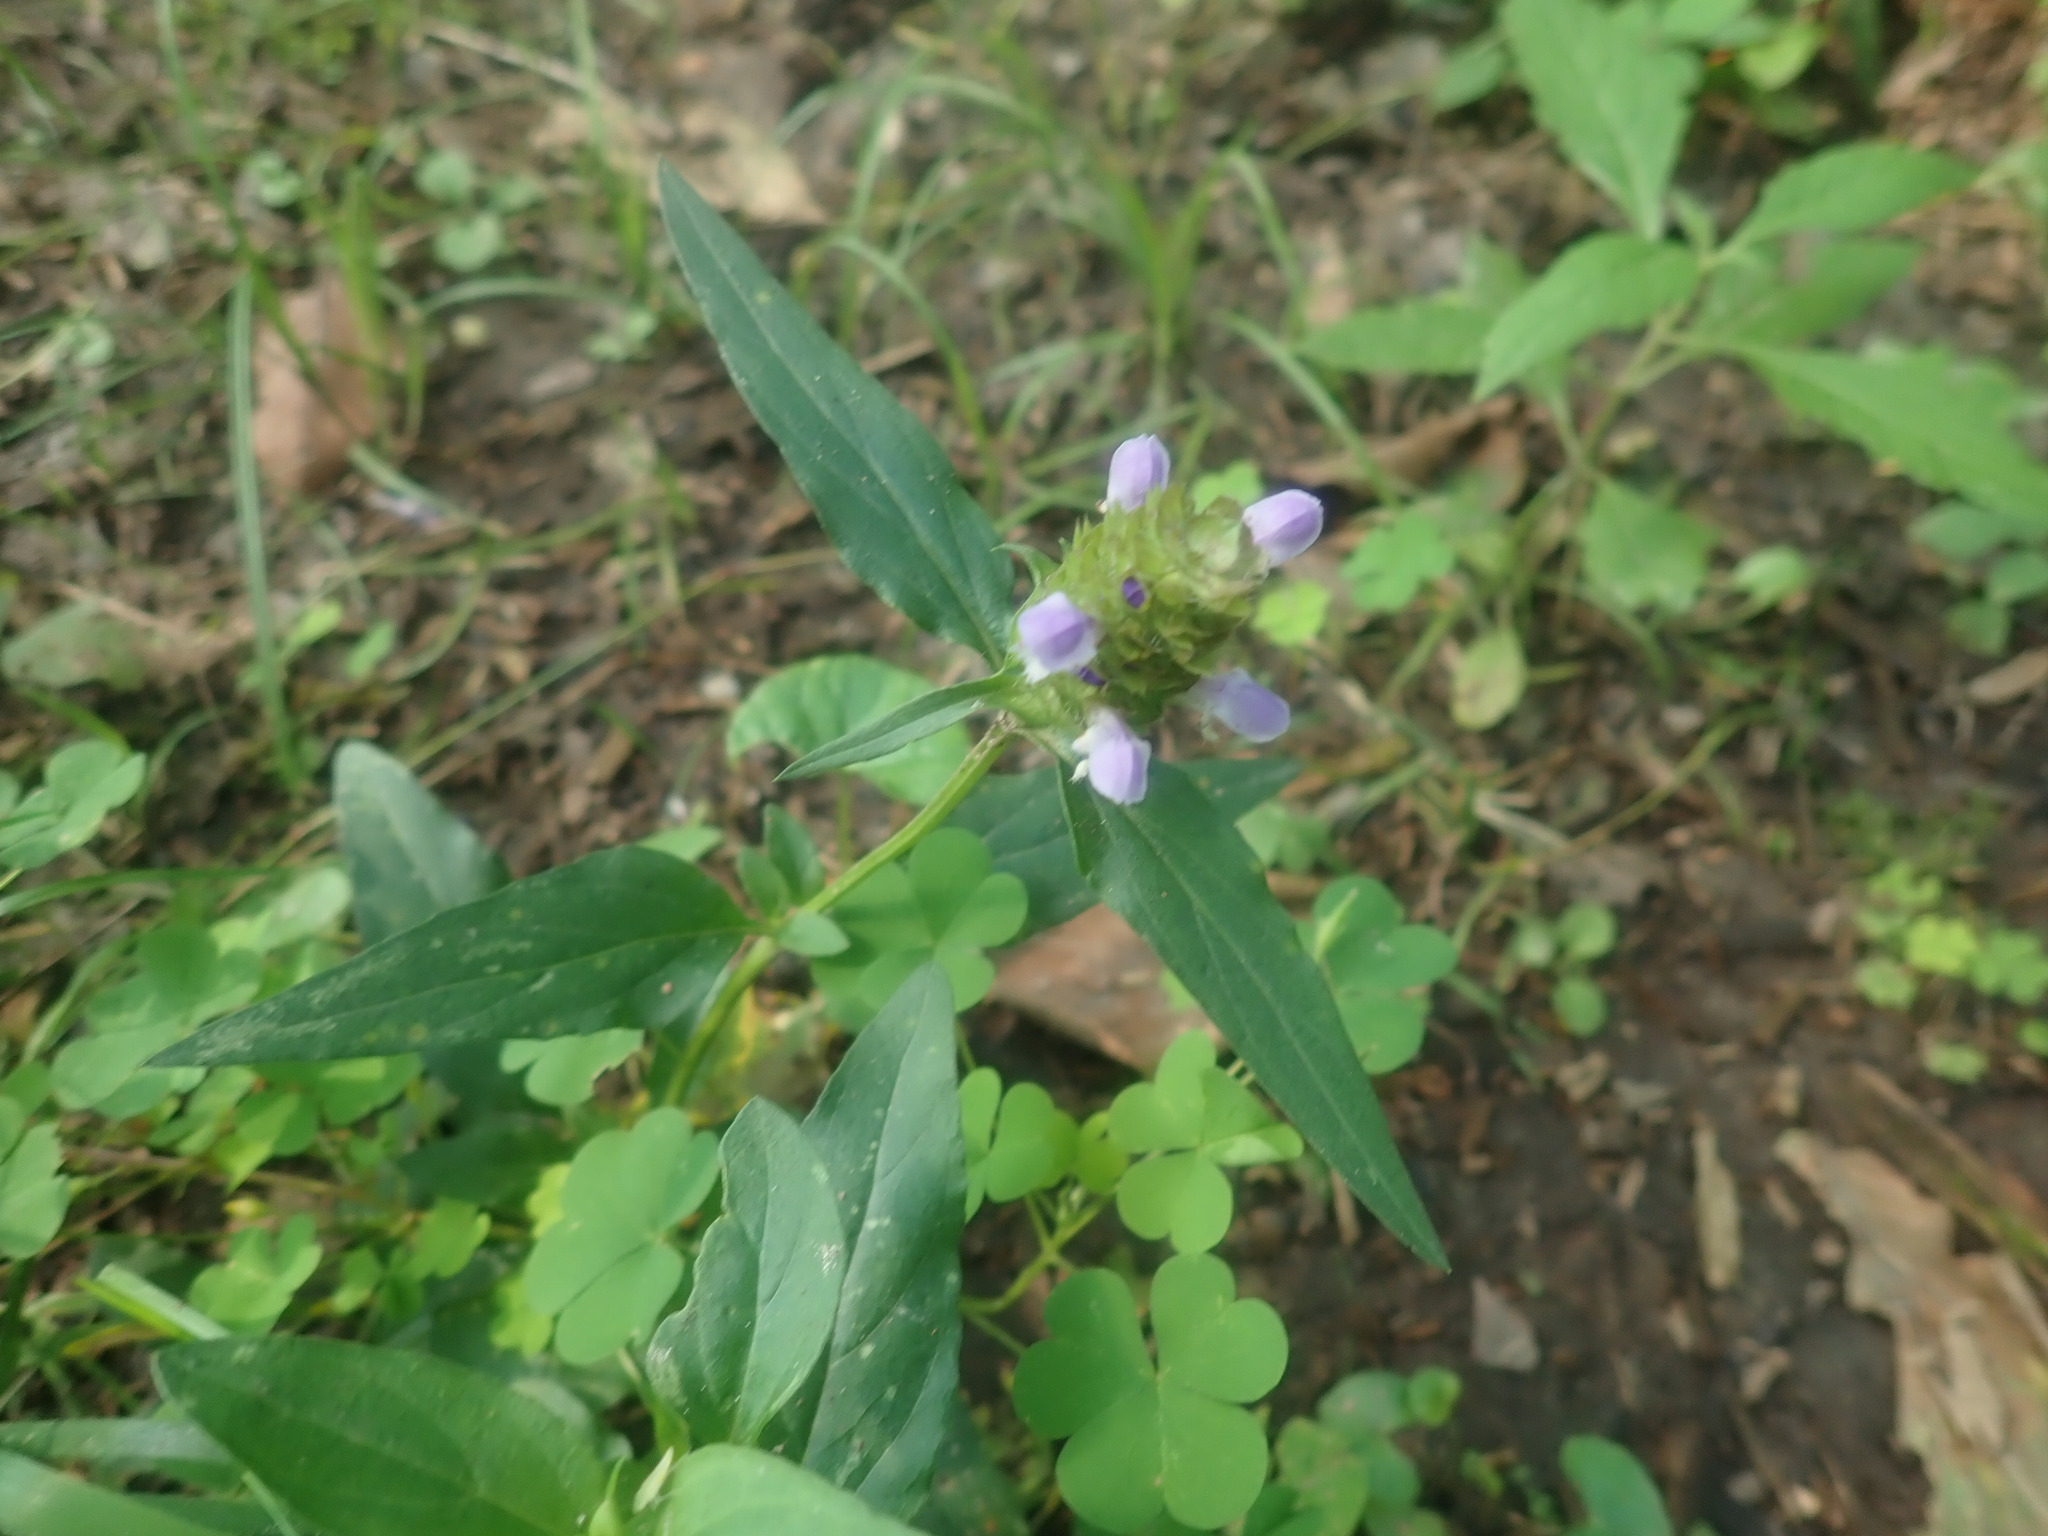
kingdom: Plantae
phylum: Tracheophyta
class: Magnoliopsida
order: Lamiales
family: Lamiaceae
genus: Prunella
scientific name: Prunella vulgaris
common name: Heal-all
